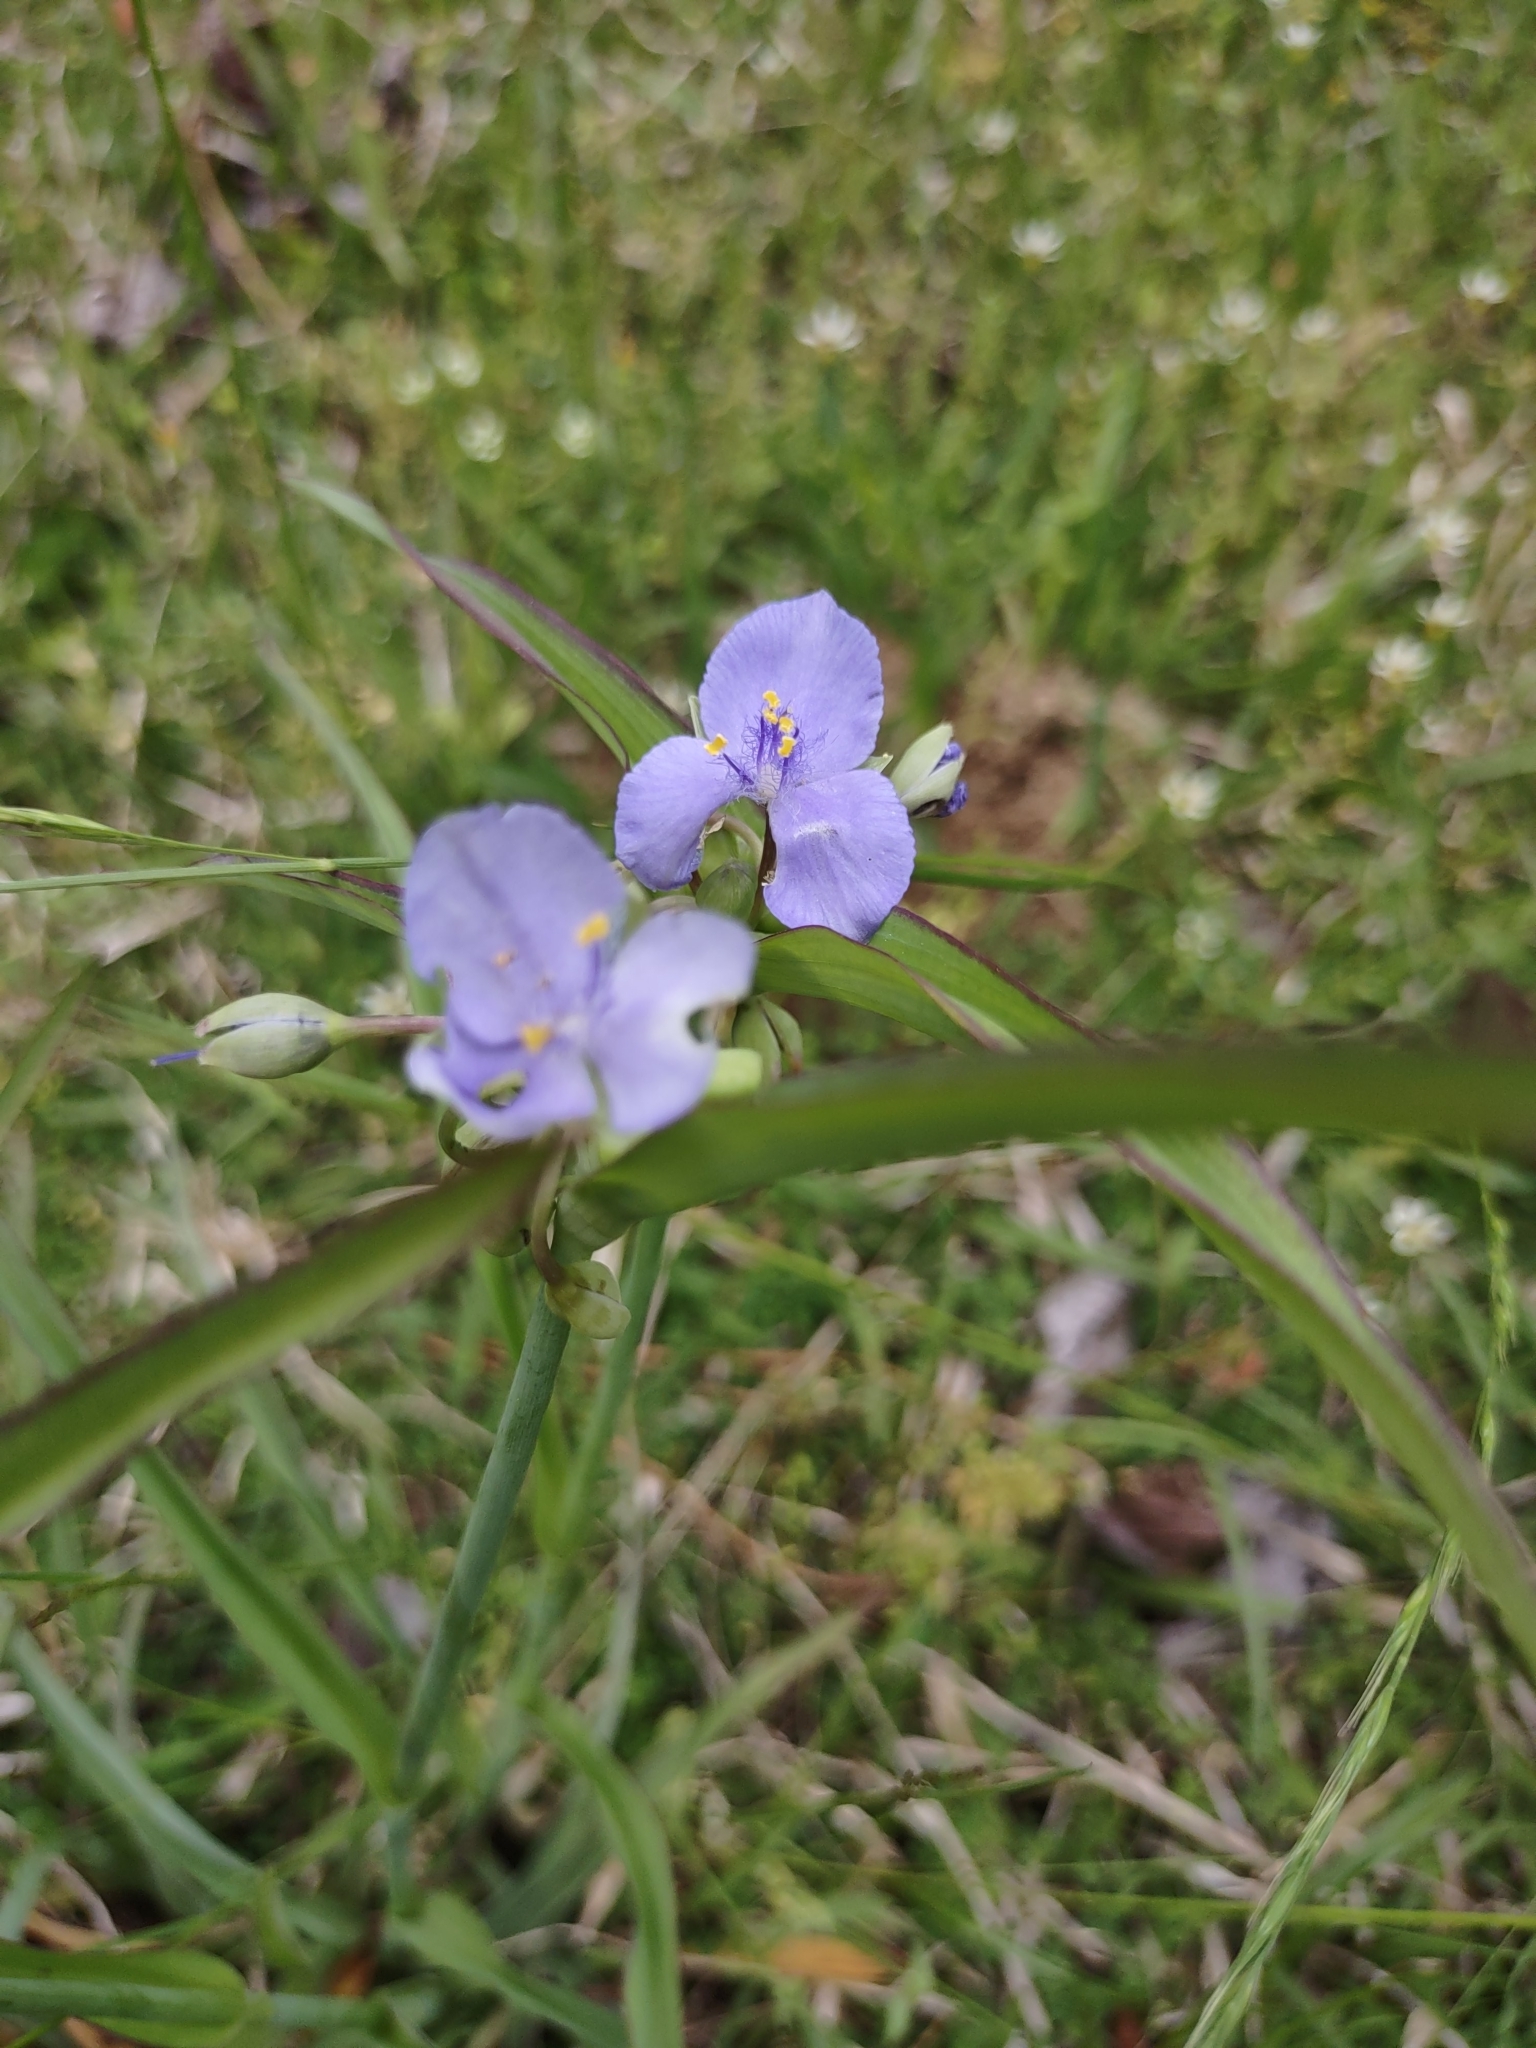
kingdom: Plantae
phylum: Tracheophyta
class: Liliopsida
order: Commelinales
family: Commelinaceae
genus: Tradescantia
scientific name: Tradescantia ohiensis
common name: Ohio spiderwort
